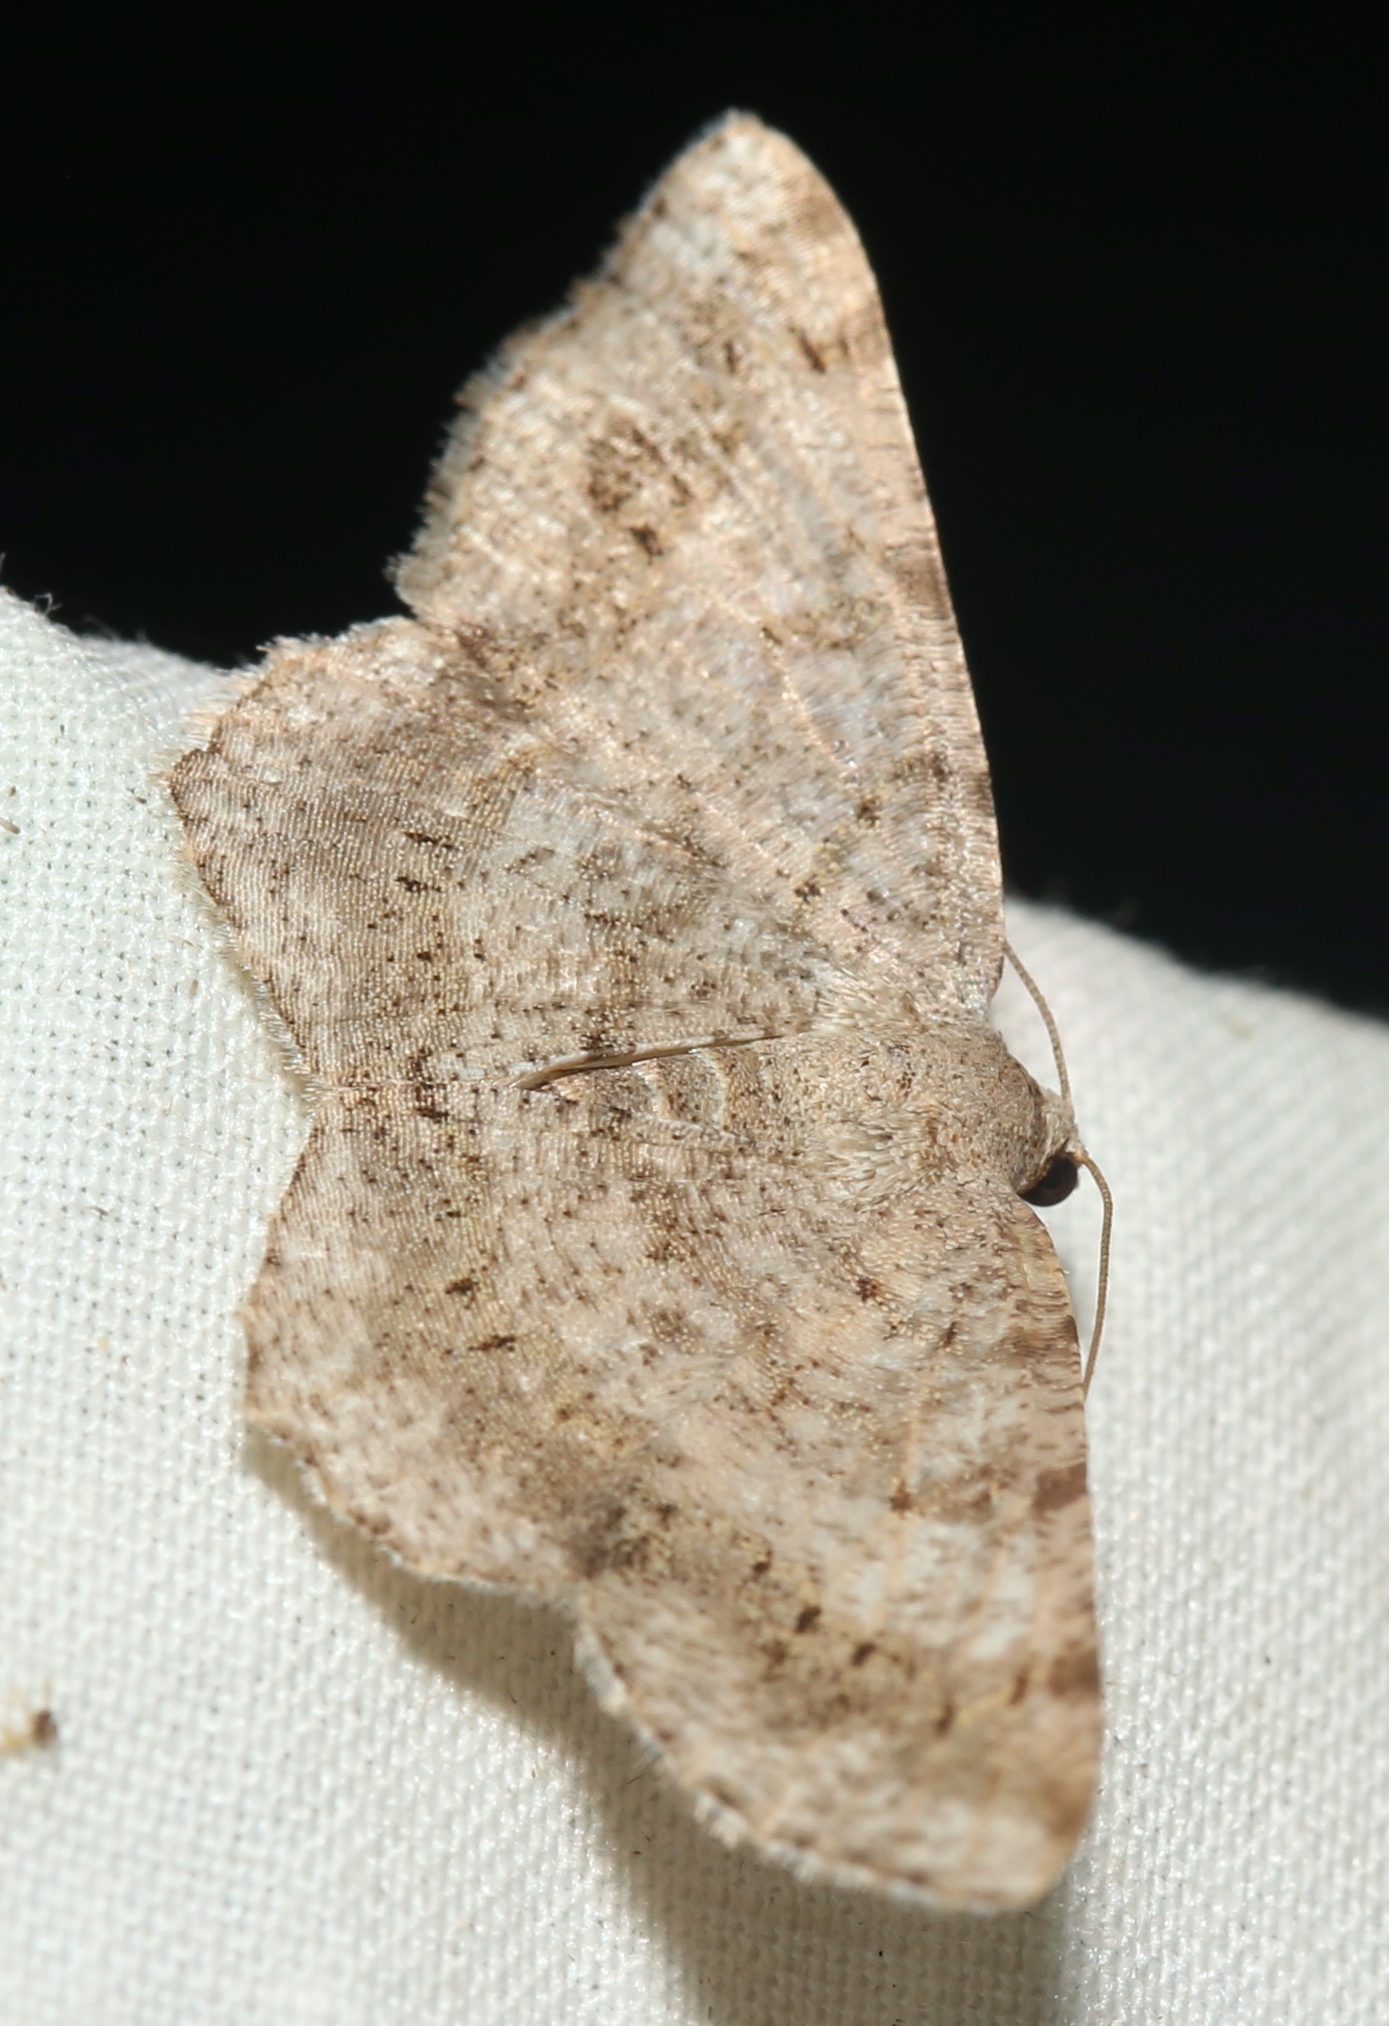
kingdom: Animalia
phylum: Arthropoda
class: Insecta
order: Lepidoptera
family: Geometridae
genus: Digrammia
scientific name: Digrammia ocellinata
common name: Faint-spotted angle
